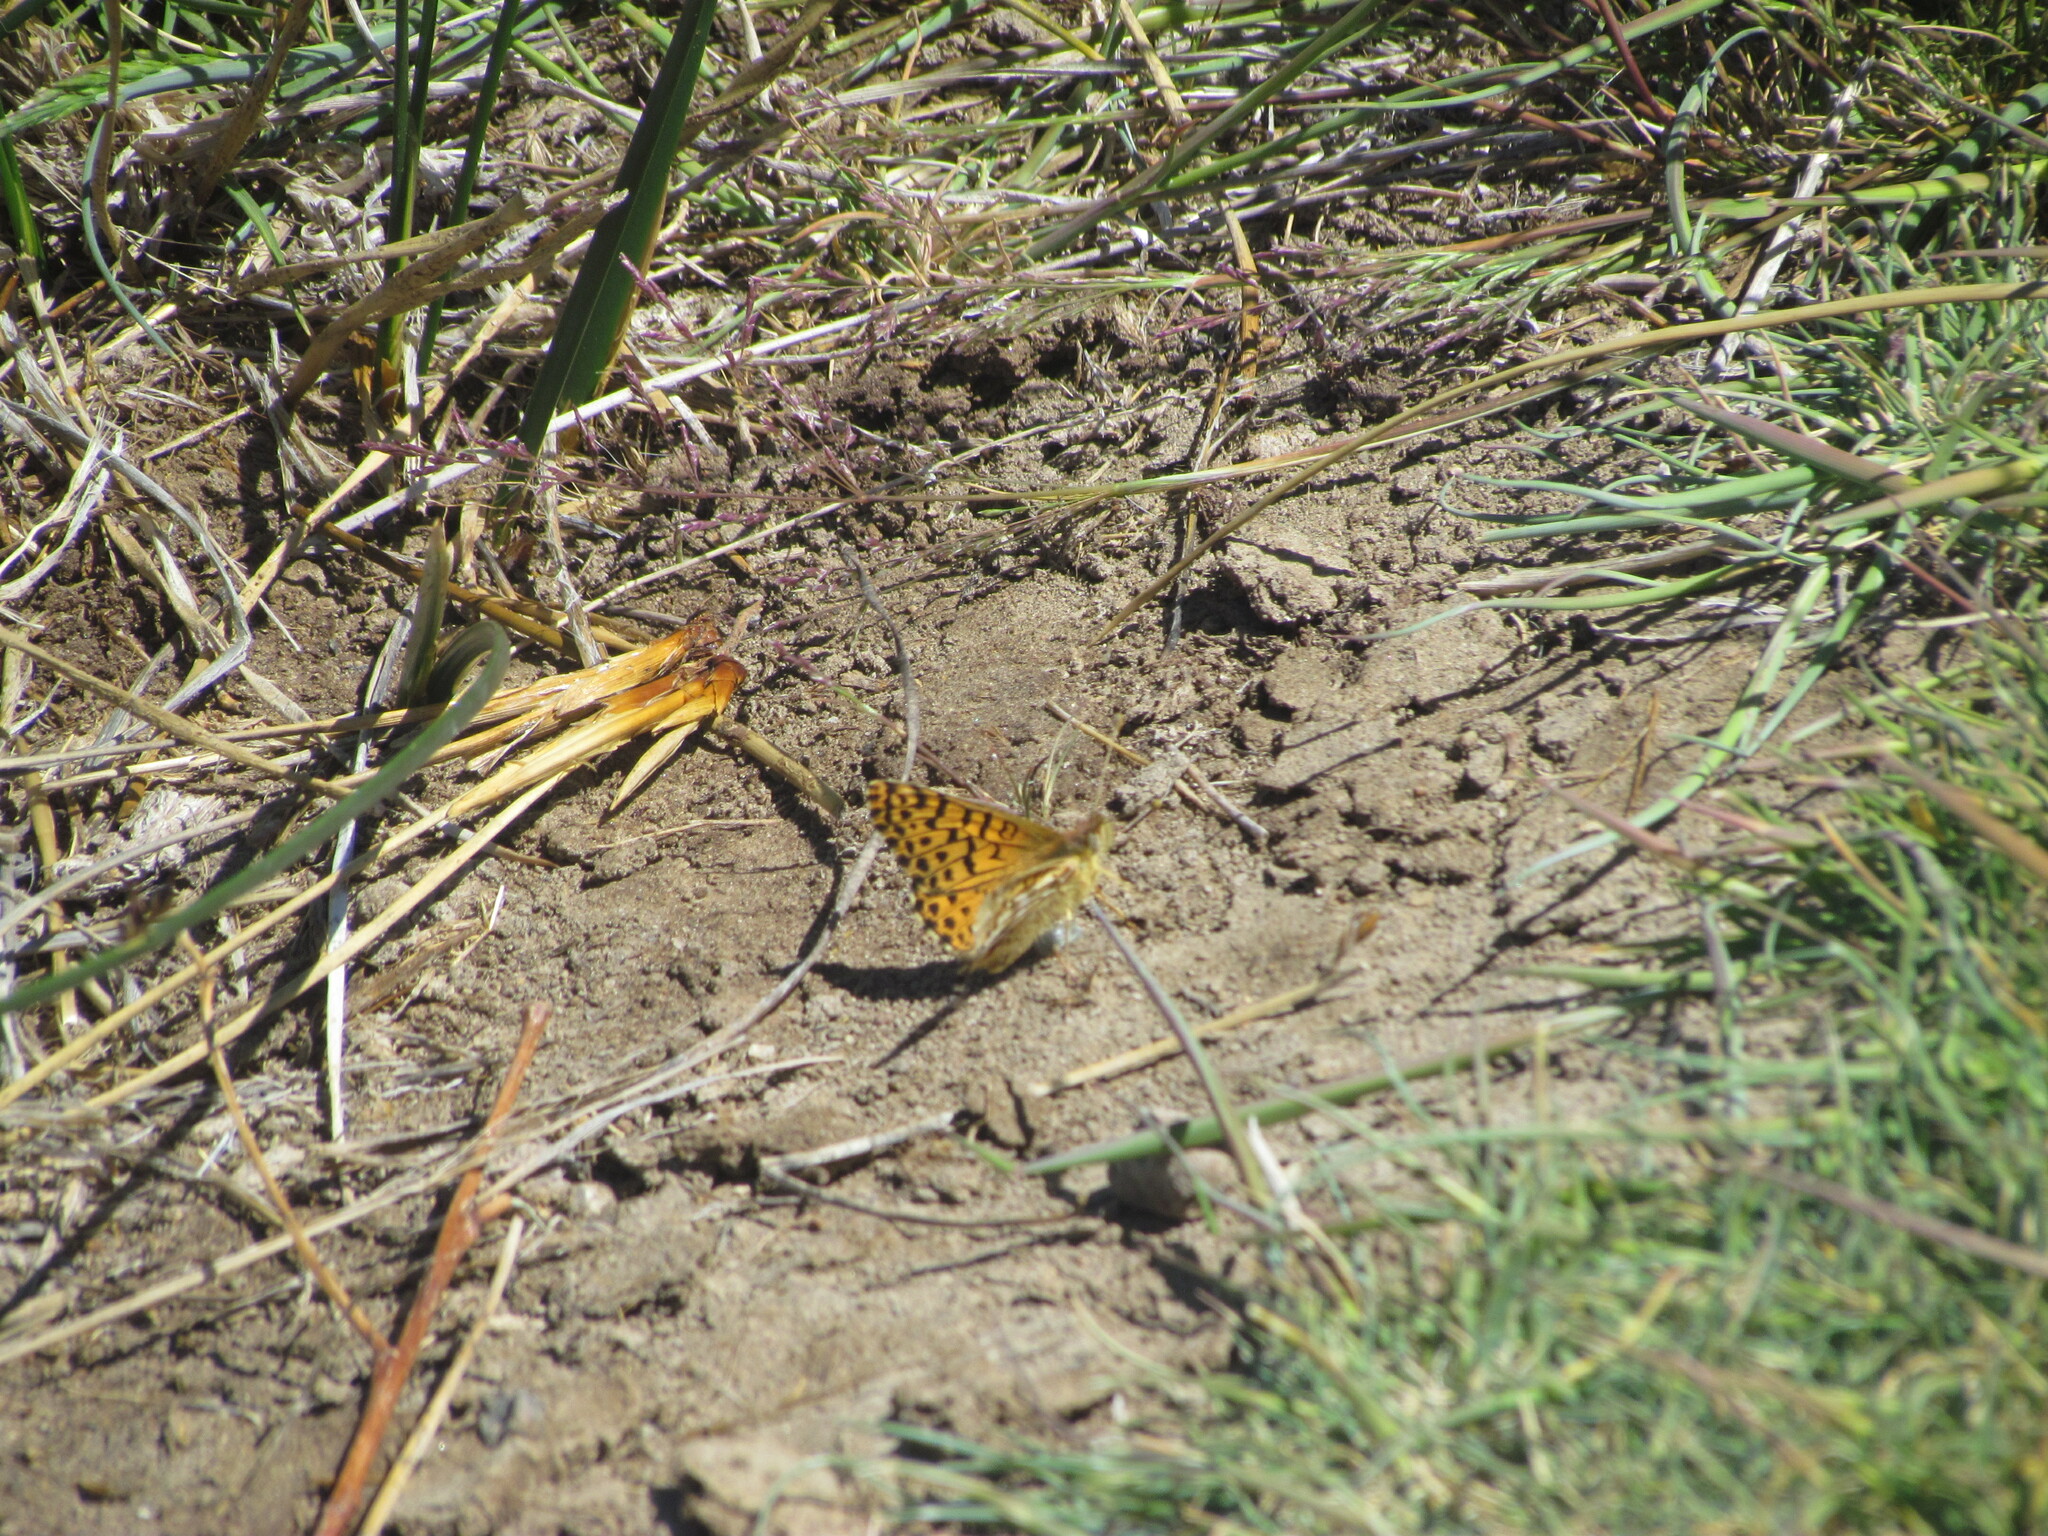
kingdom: Animalia
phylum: Arthropoda
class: Insecta
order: Lepidoptera
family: Nymphalidae
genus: Issoria
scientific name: Issoria Yramea lathonoides
